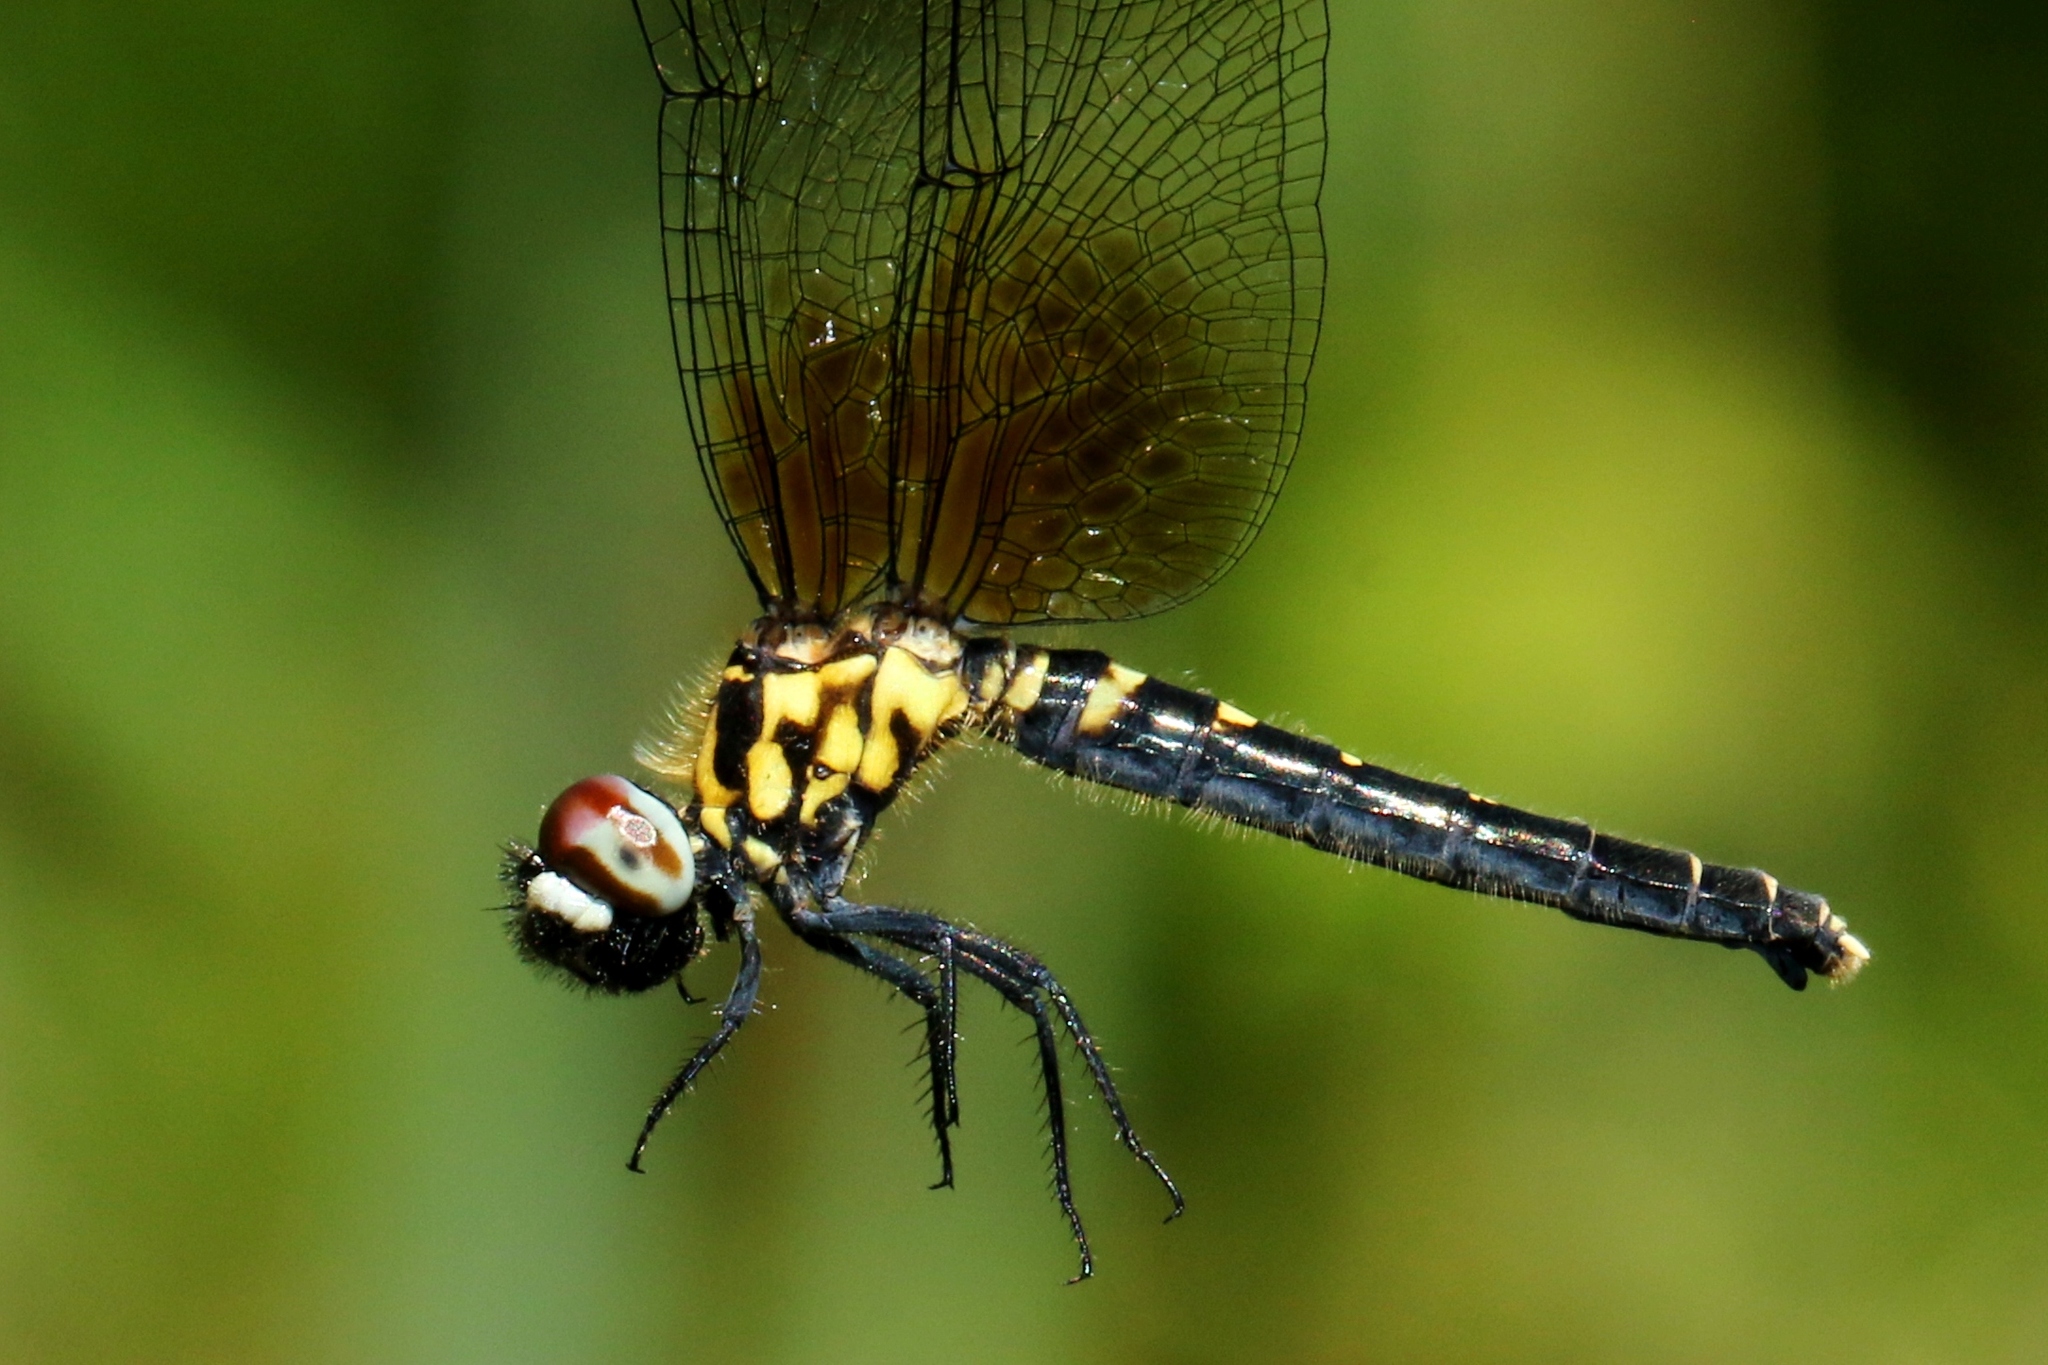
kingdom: Animalia
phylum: Arthropoda
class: Insecta
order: Odonata
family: Libellulidae
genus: Nannothemis
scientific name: Nannothemis bella
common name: Elfin skimmer
